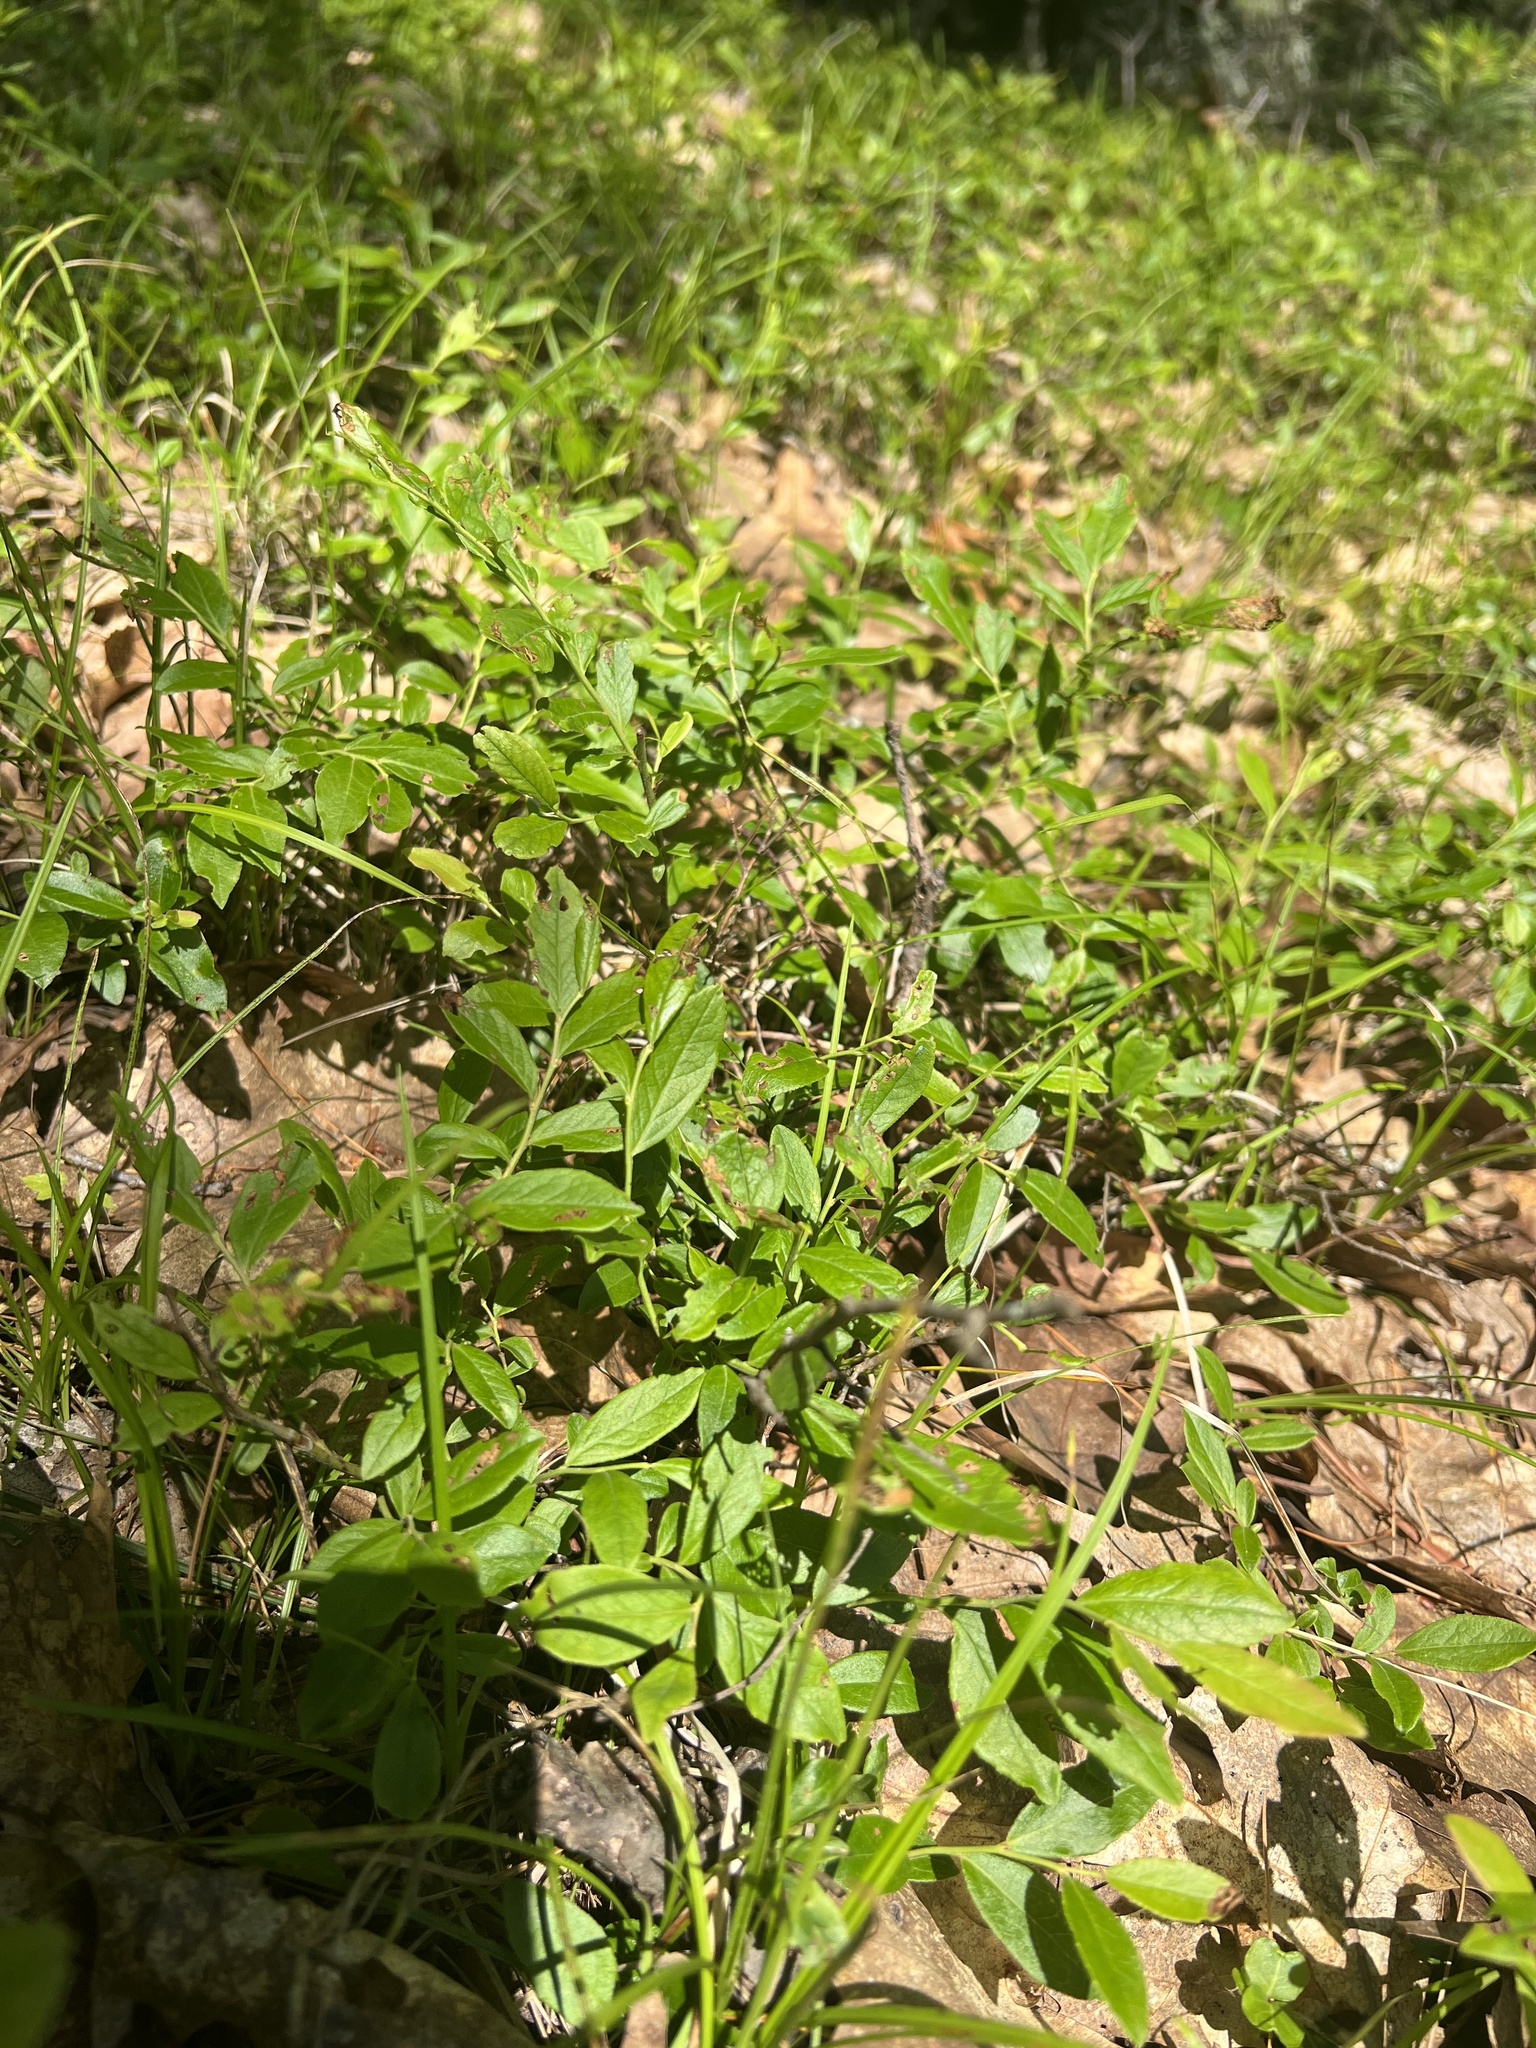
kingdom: Plantae
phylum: Tracheophyta
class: Magnoliopsida
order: Ericales
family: Ericaceae
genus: Vaccinium
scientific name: Vaccinium angustifolium
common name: Early lowbush blueberry
